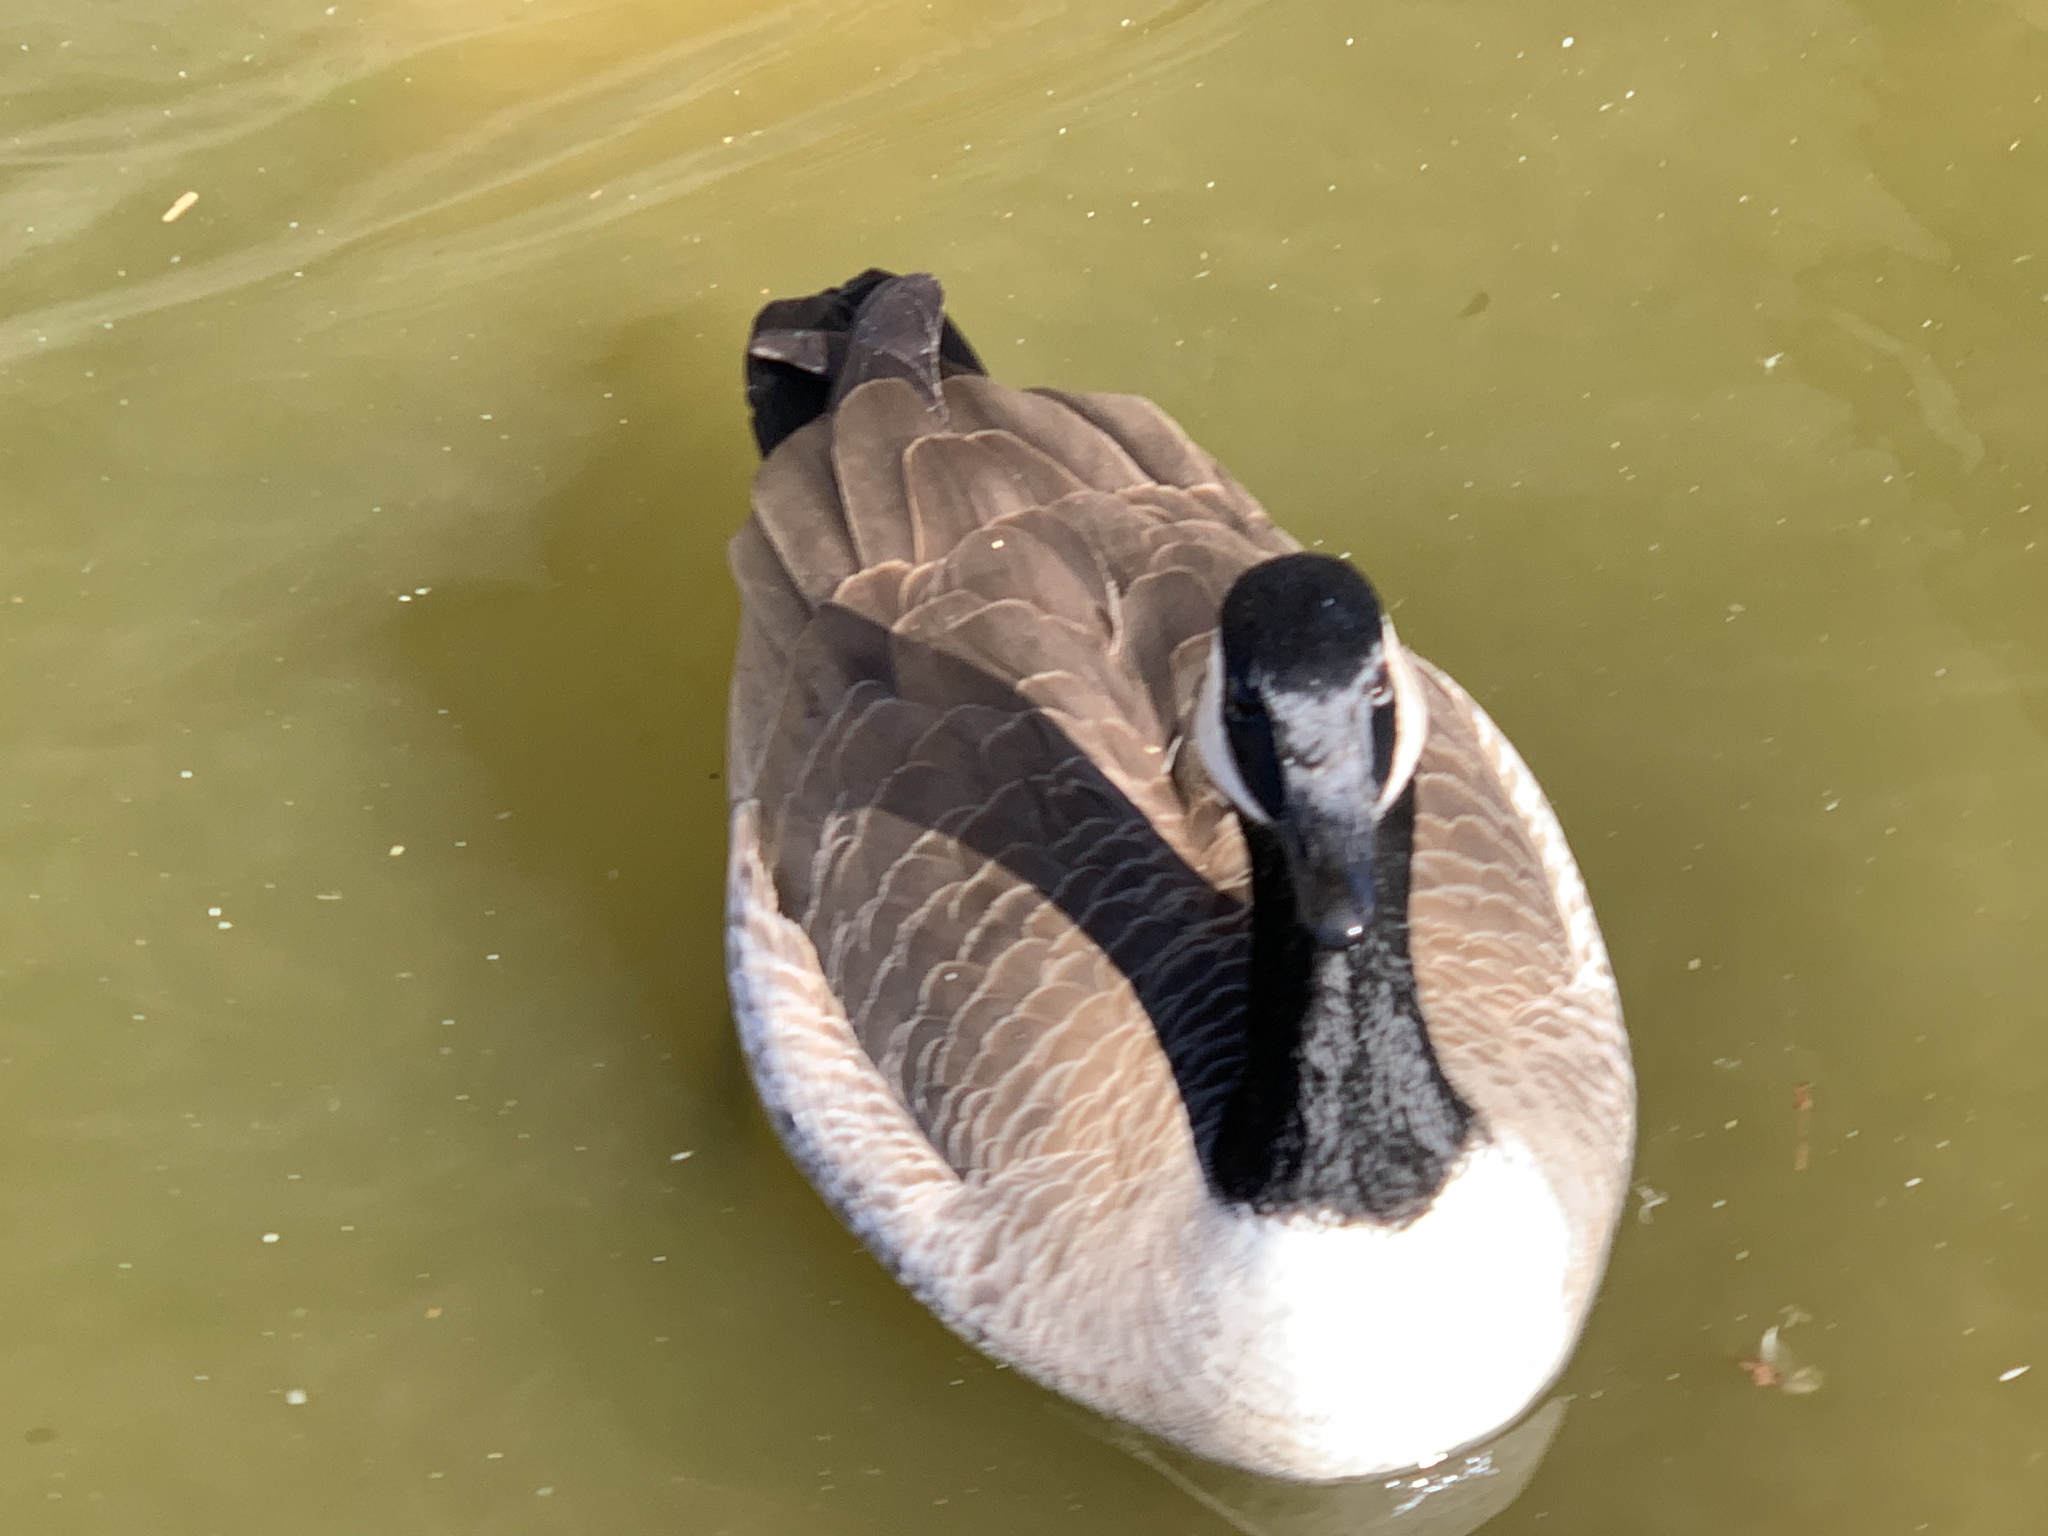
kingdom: Animalia
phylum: Chordata
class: Aves
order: Anseriformes
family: Anatidae
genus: Branta
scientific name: Branta canadensis
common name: Canada goose
